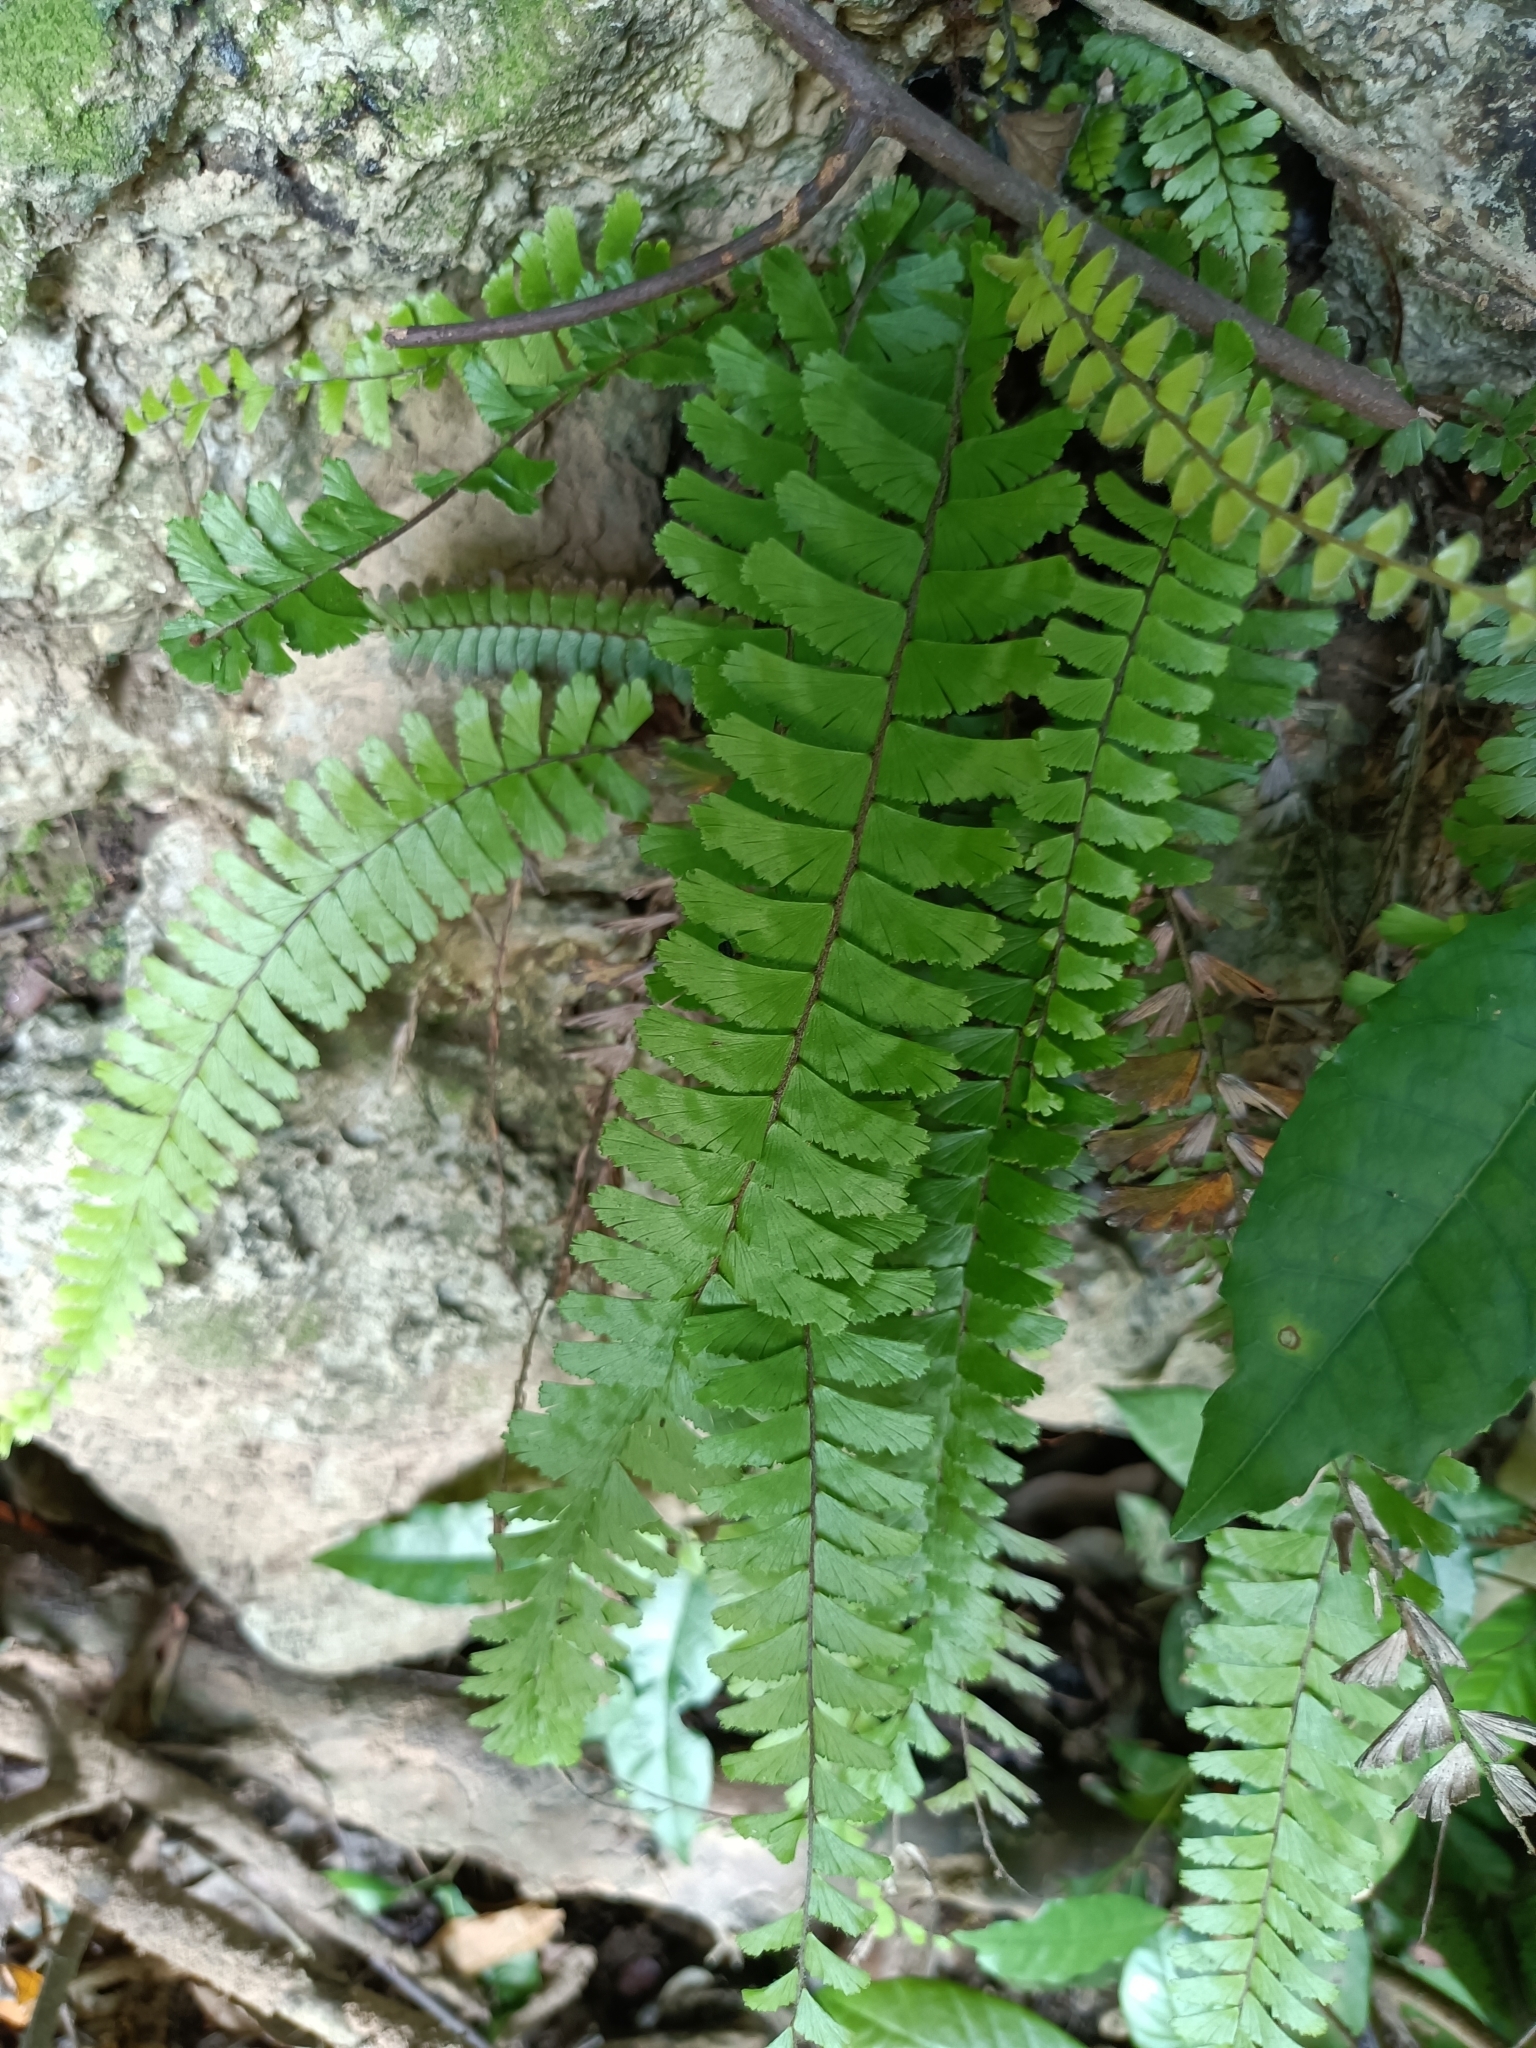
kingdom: Plantae
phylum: Tracheophyta
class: Polypodiopsida
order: Polypodiales
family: Pteridaceae
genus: Adiantum
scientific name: Adiantum caudatum
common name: Tailed maidenhair
